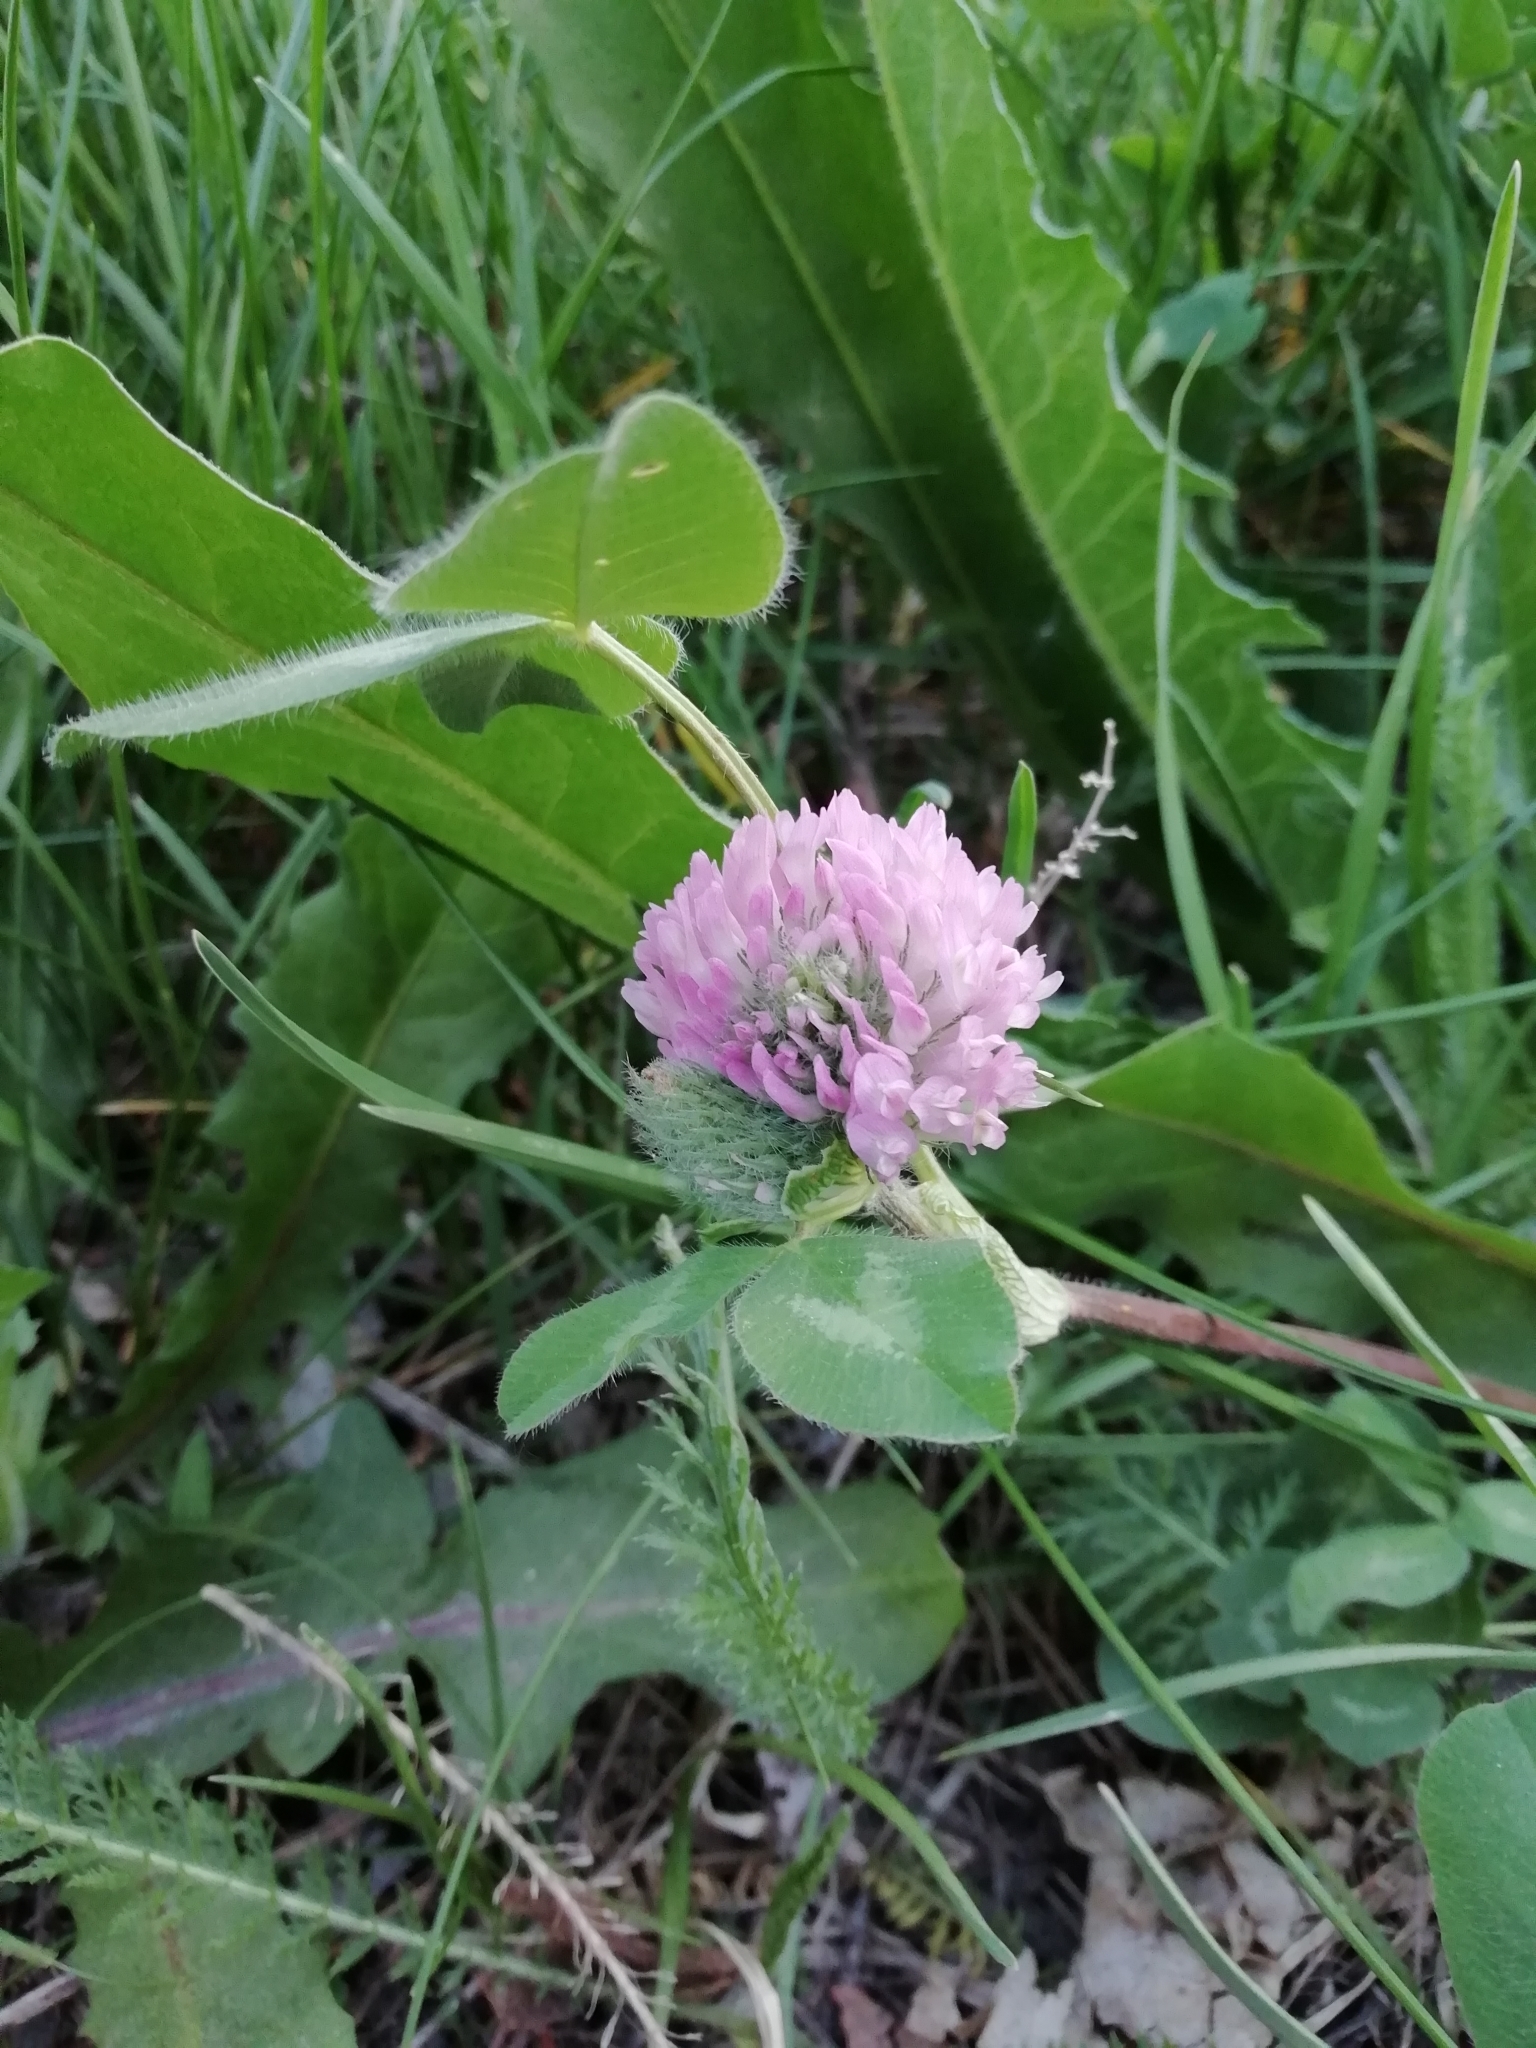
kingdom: Plantae
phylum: Tracheophyta
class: Magnoliopsida
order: Fabales
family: Fabaceae
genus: Trifolium
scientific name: Trifolium pratense
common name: Red clover
